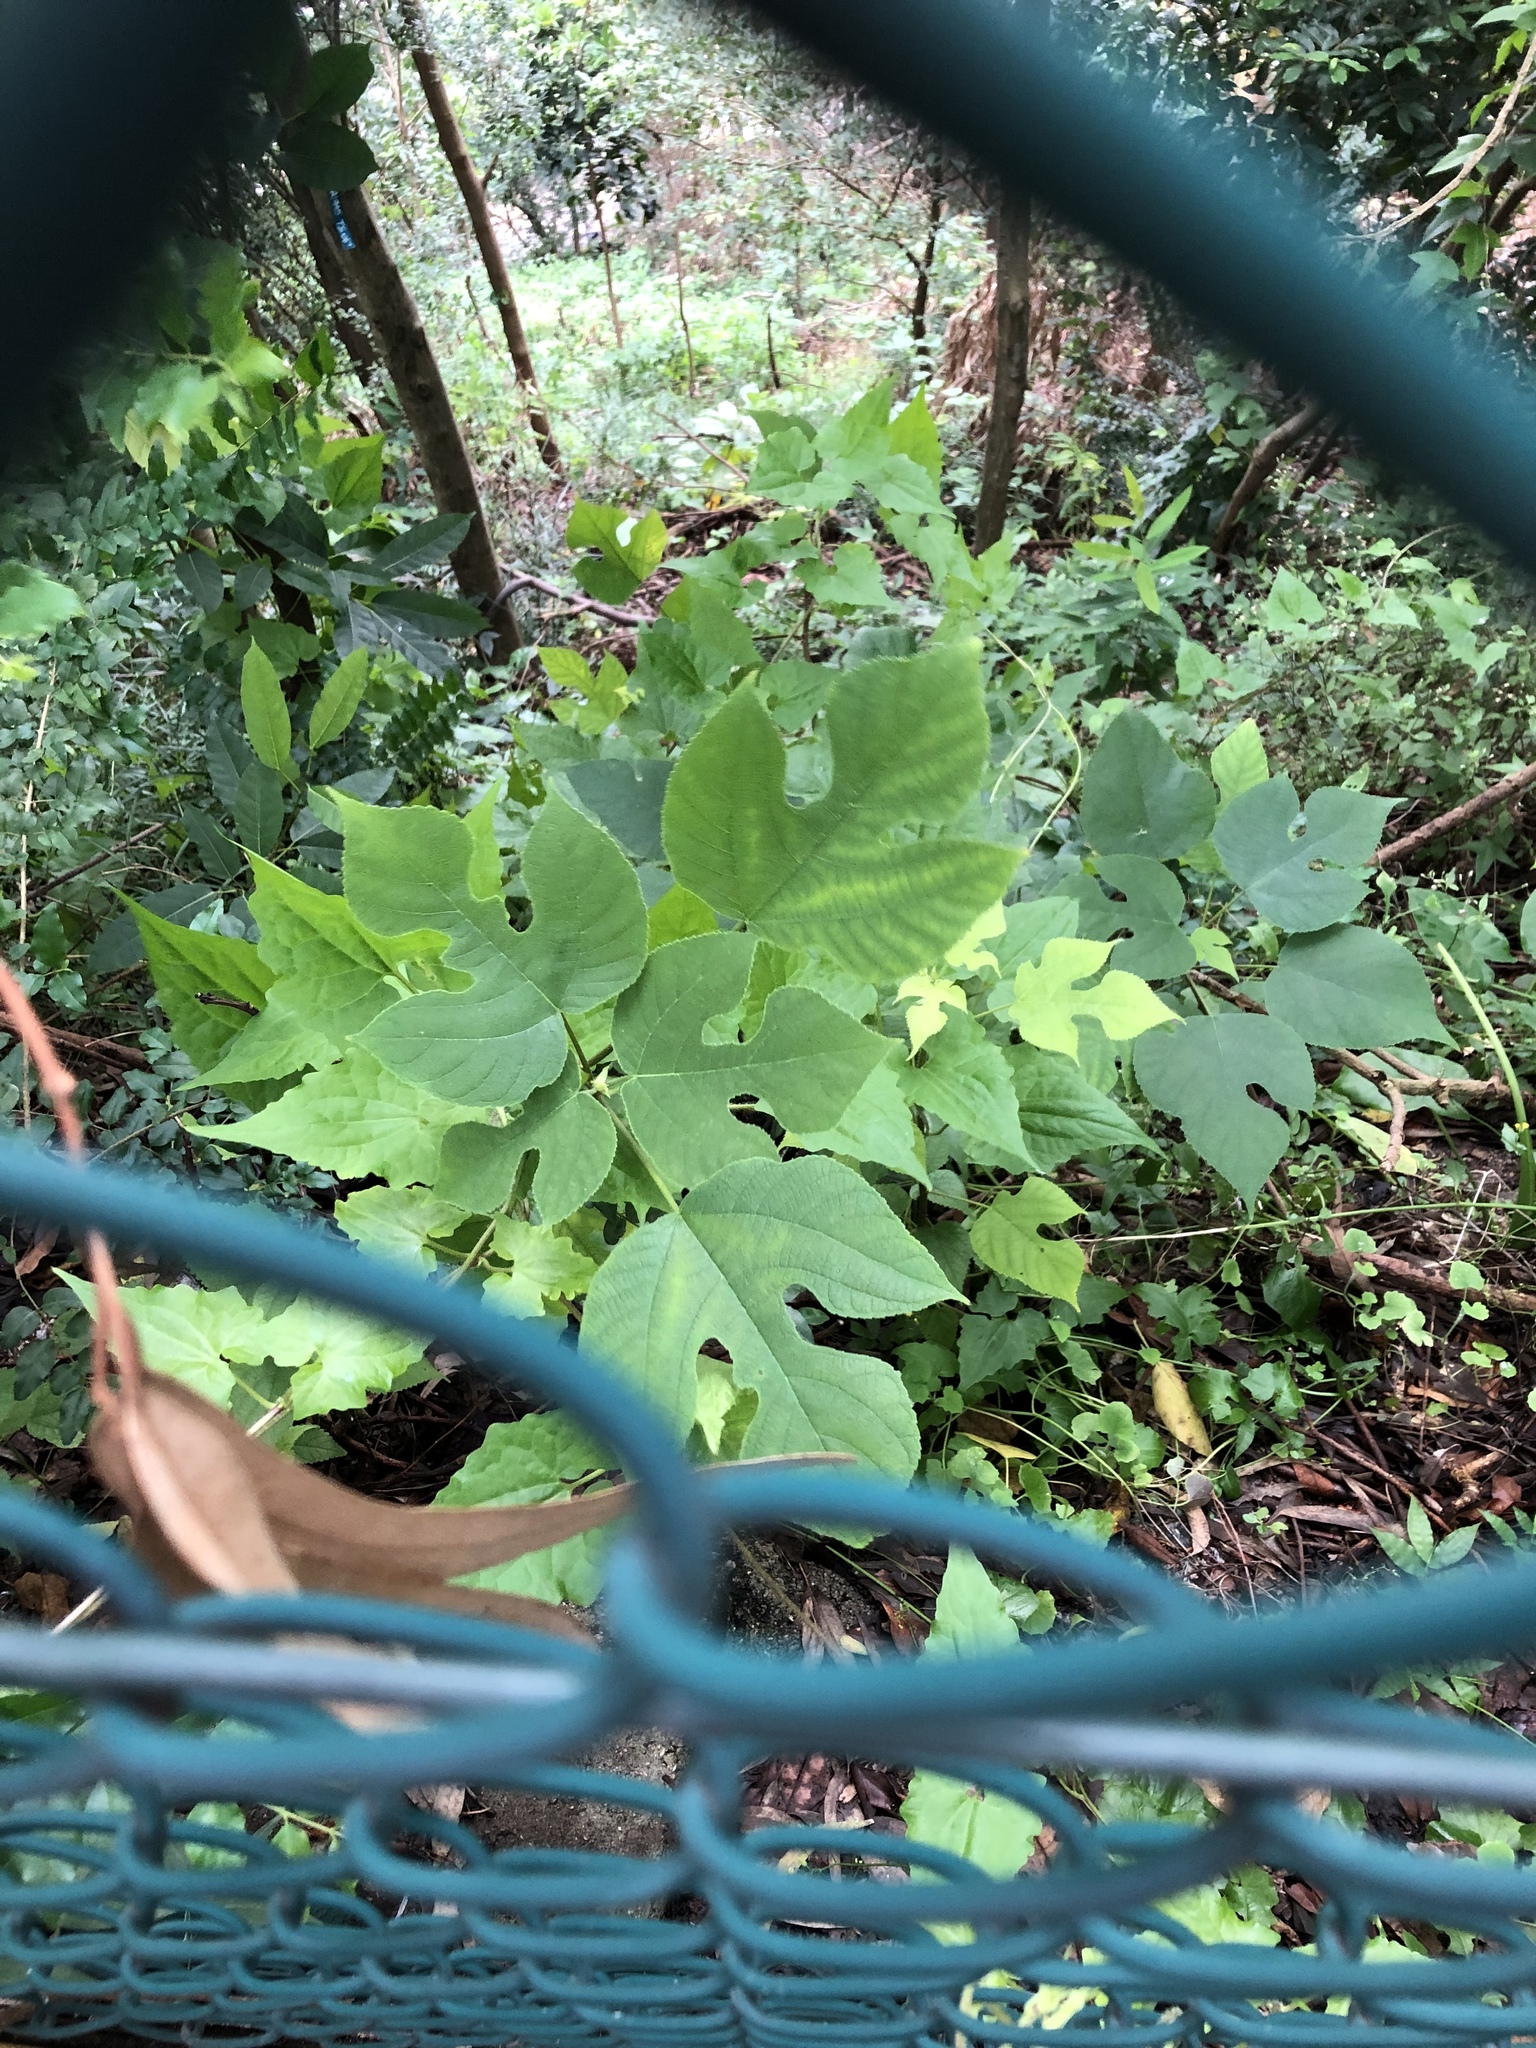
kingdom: Plantae
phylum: Tracheophyta
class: Magnoliopsida
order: Rosales
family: Moraceae
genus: Broussonetia
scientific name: Broussonetia papyrifera
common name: Paper mulberry
